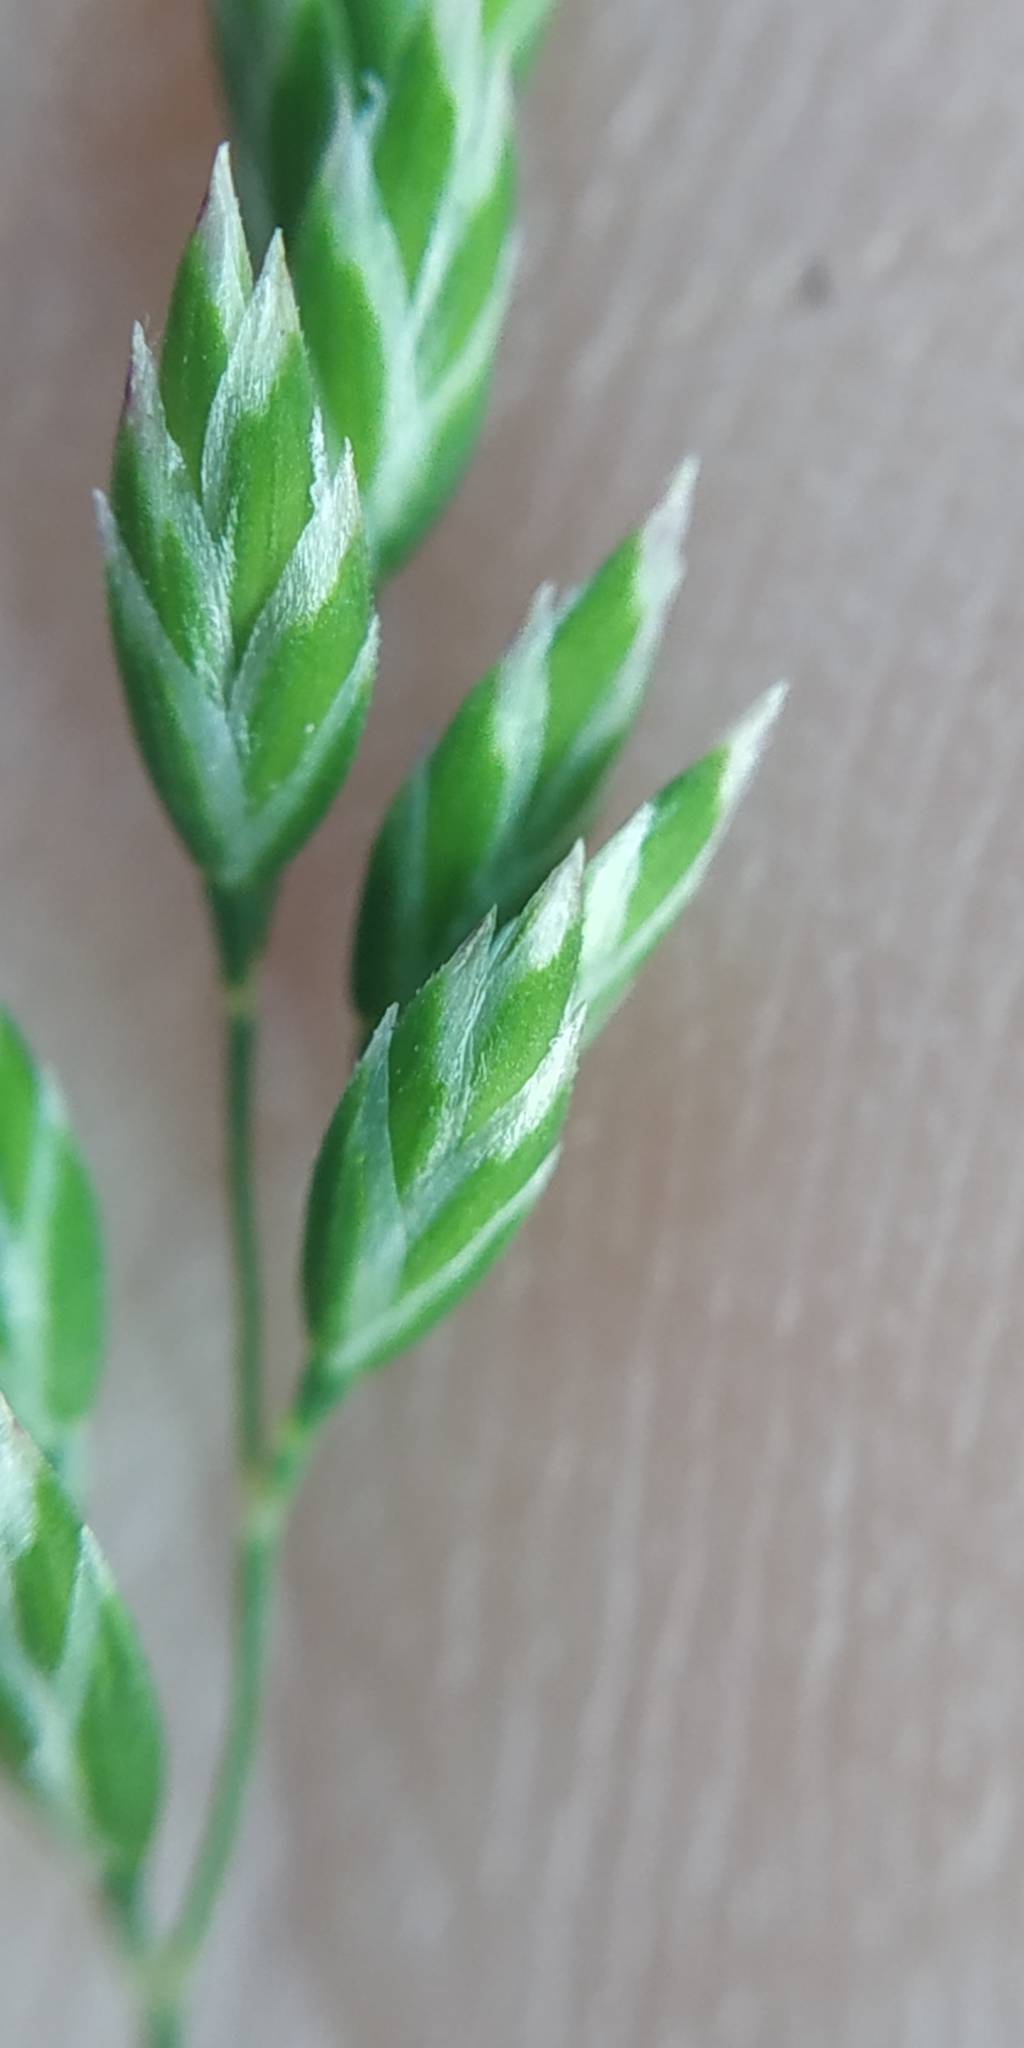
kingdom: Plantae
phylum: Tracheophyta
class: Liliopsida
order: Poales
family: Poaceae
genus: Poa
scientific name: Poa pratensis
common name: Kentucky bluegrass
